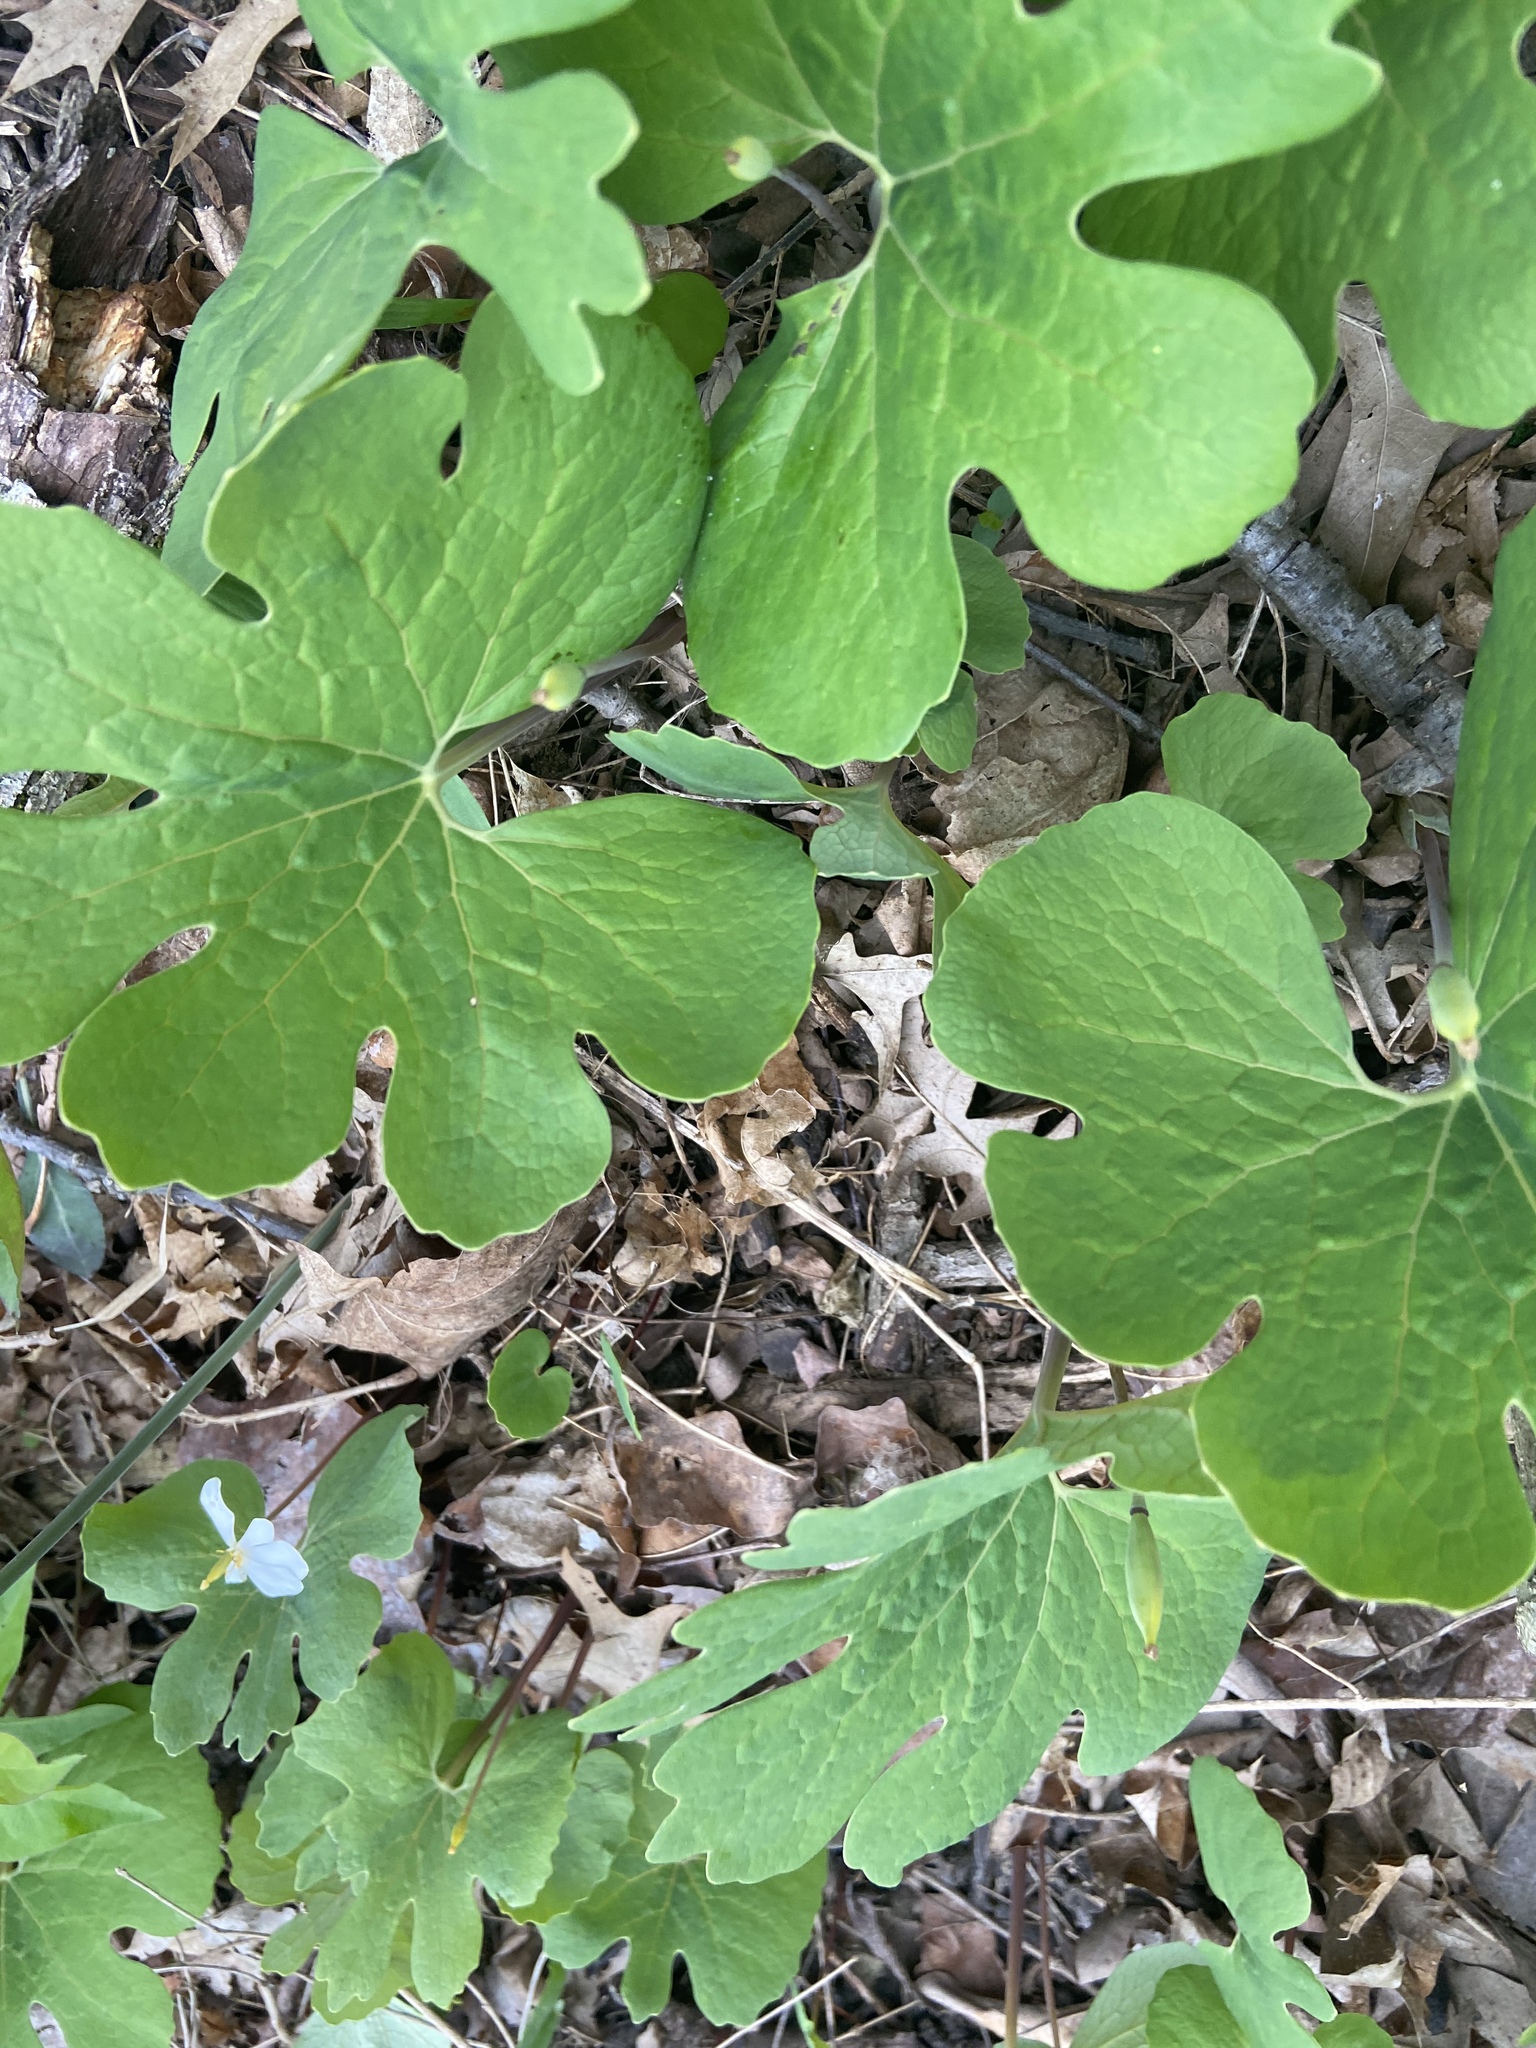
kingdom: Plantae
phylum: Tracheophyta
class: Magnoliopsida
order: Ranunculales
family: Papaveraceae
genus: Sanguinaria
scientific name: Sanguinaria canadensis
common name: Bloodroot
